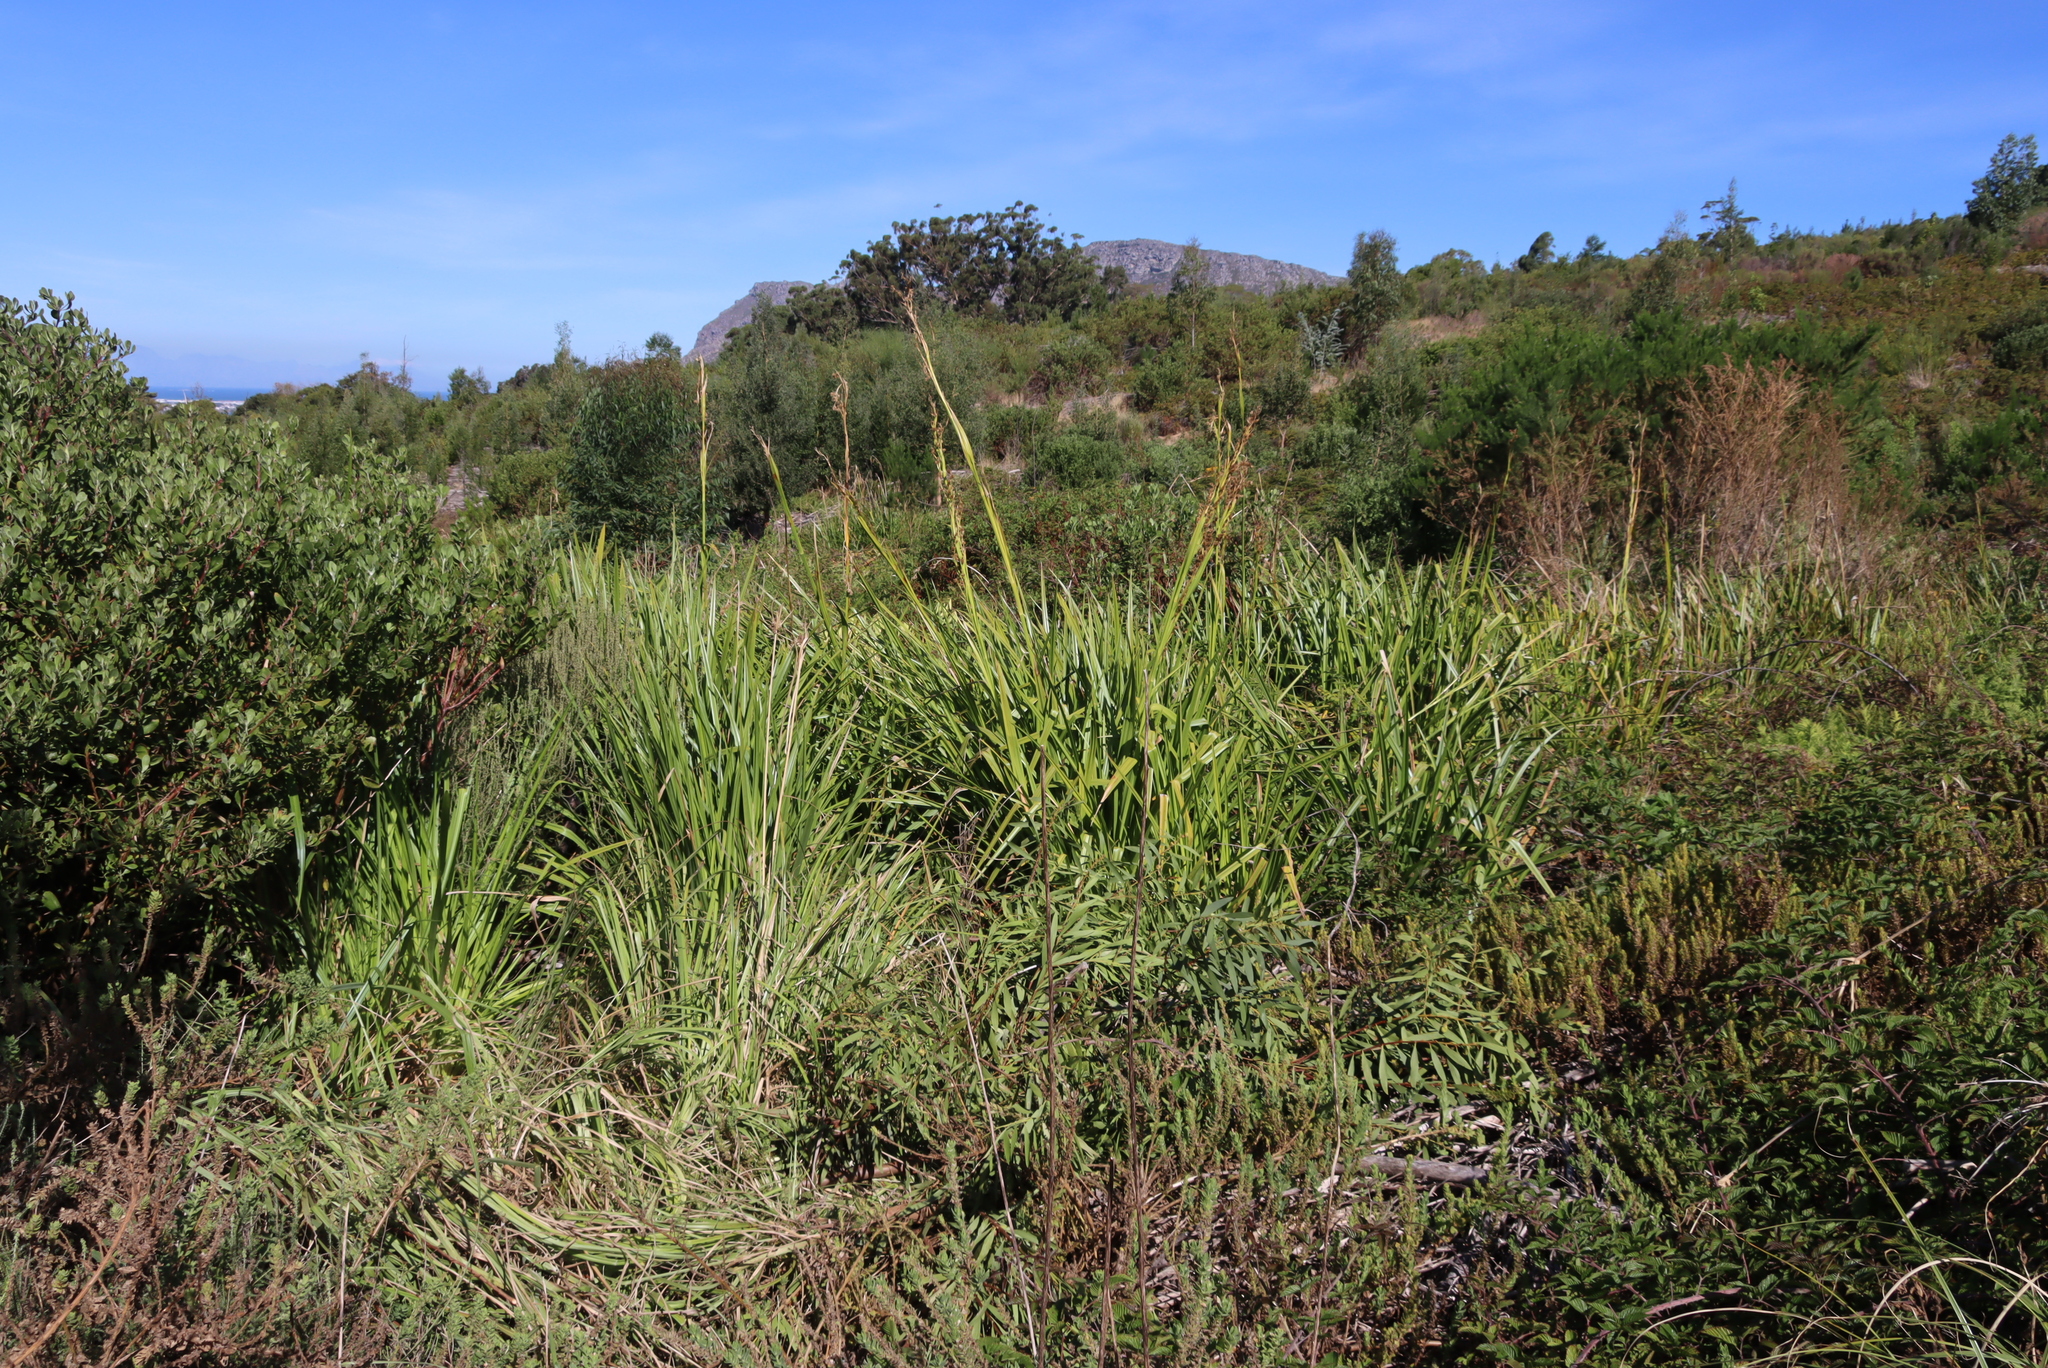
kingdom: Plantae
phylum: Tracheophyta
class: Liliopsida
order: Poales
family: Cyperaceae
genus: Carpha
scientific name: Carpha glomerata
